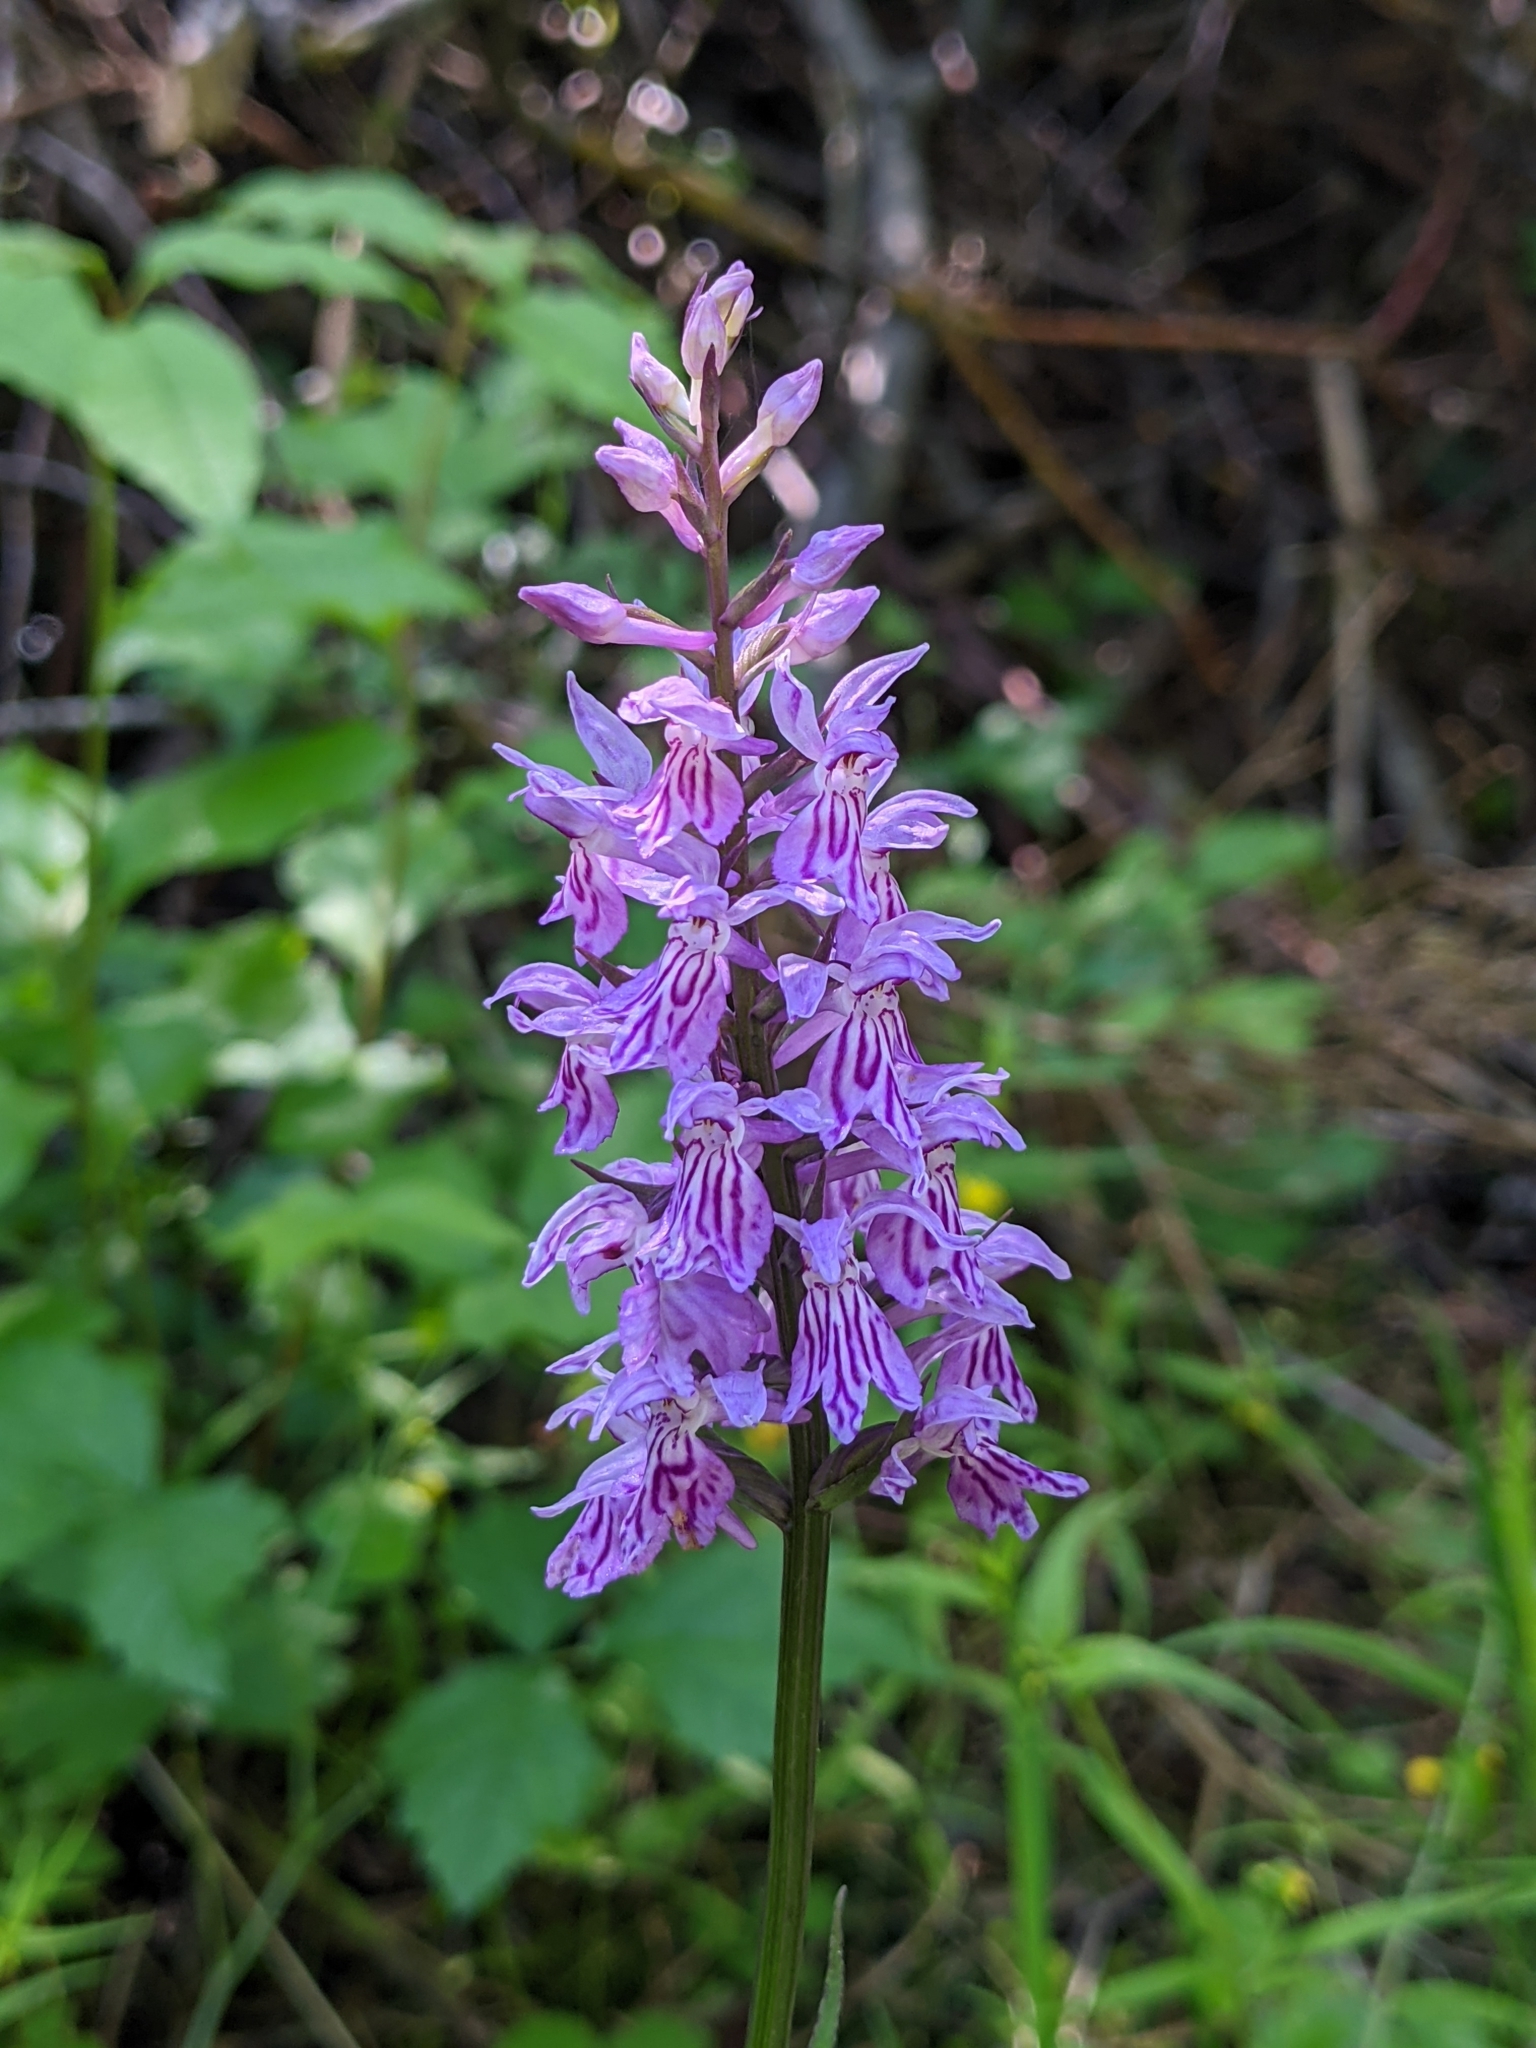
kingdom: Plantae
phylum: Tracheophyta
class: Liliopsida
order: Asparagales
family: Orchidaceae
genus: Dactylorhiza
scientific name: Dactylorhiza maculata
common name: Heath spotted-orchid
